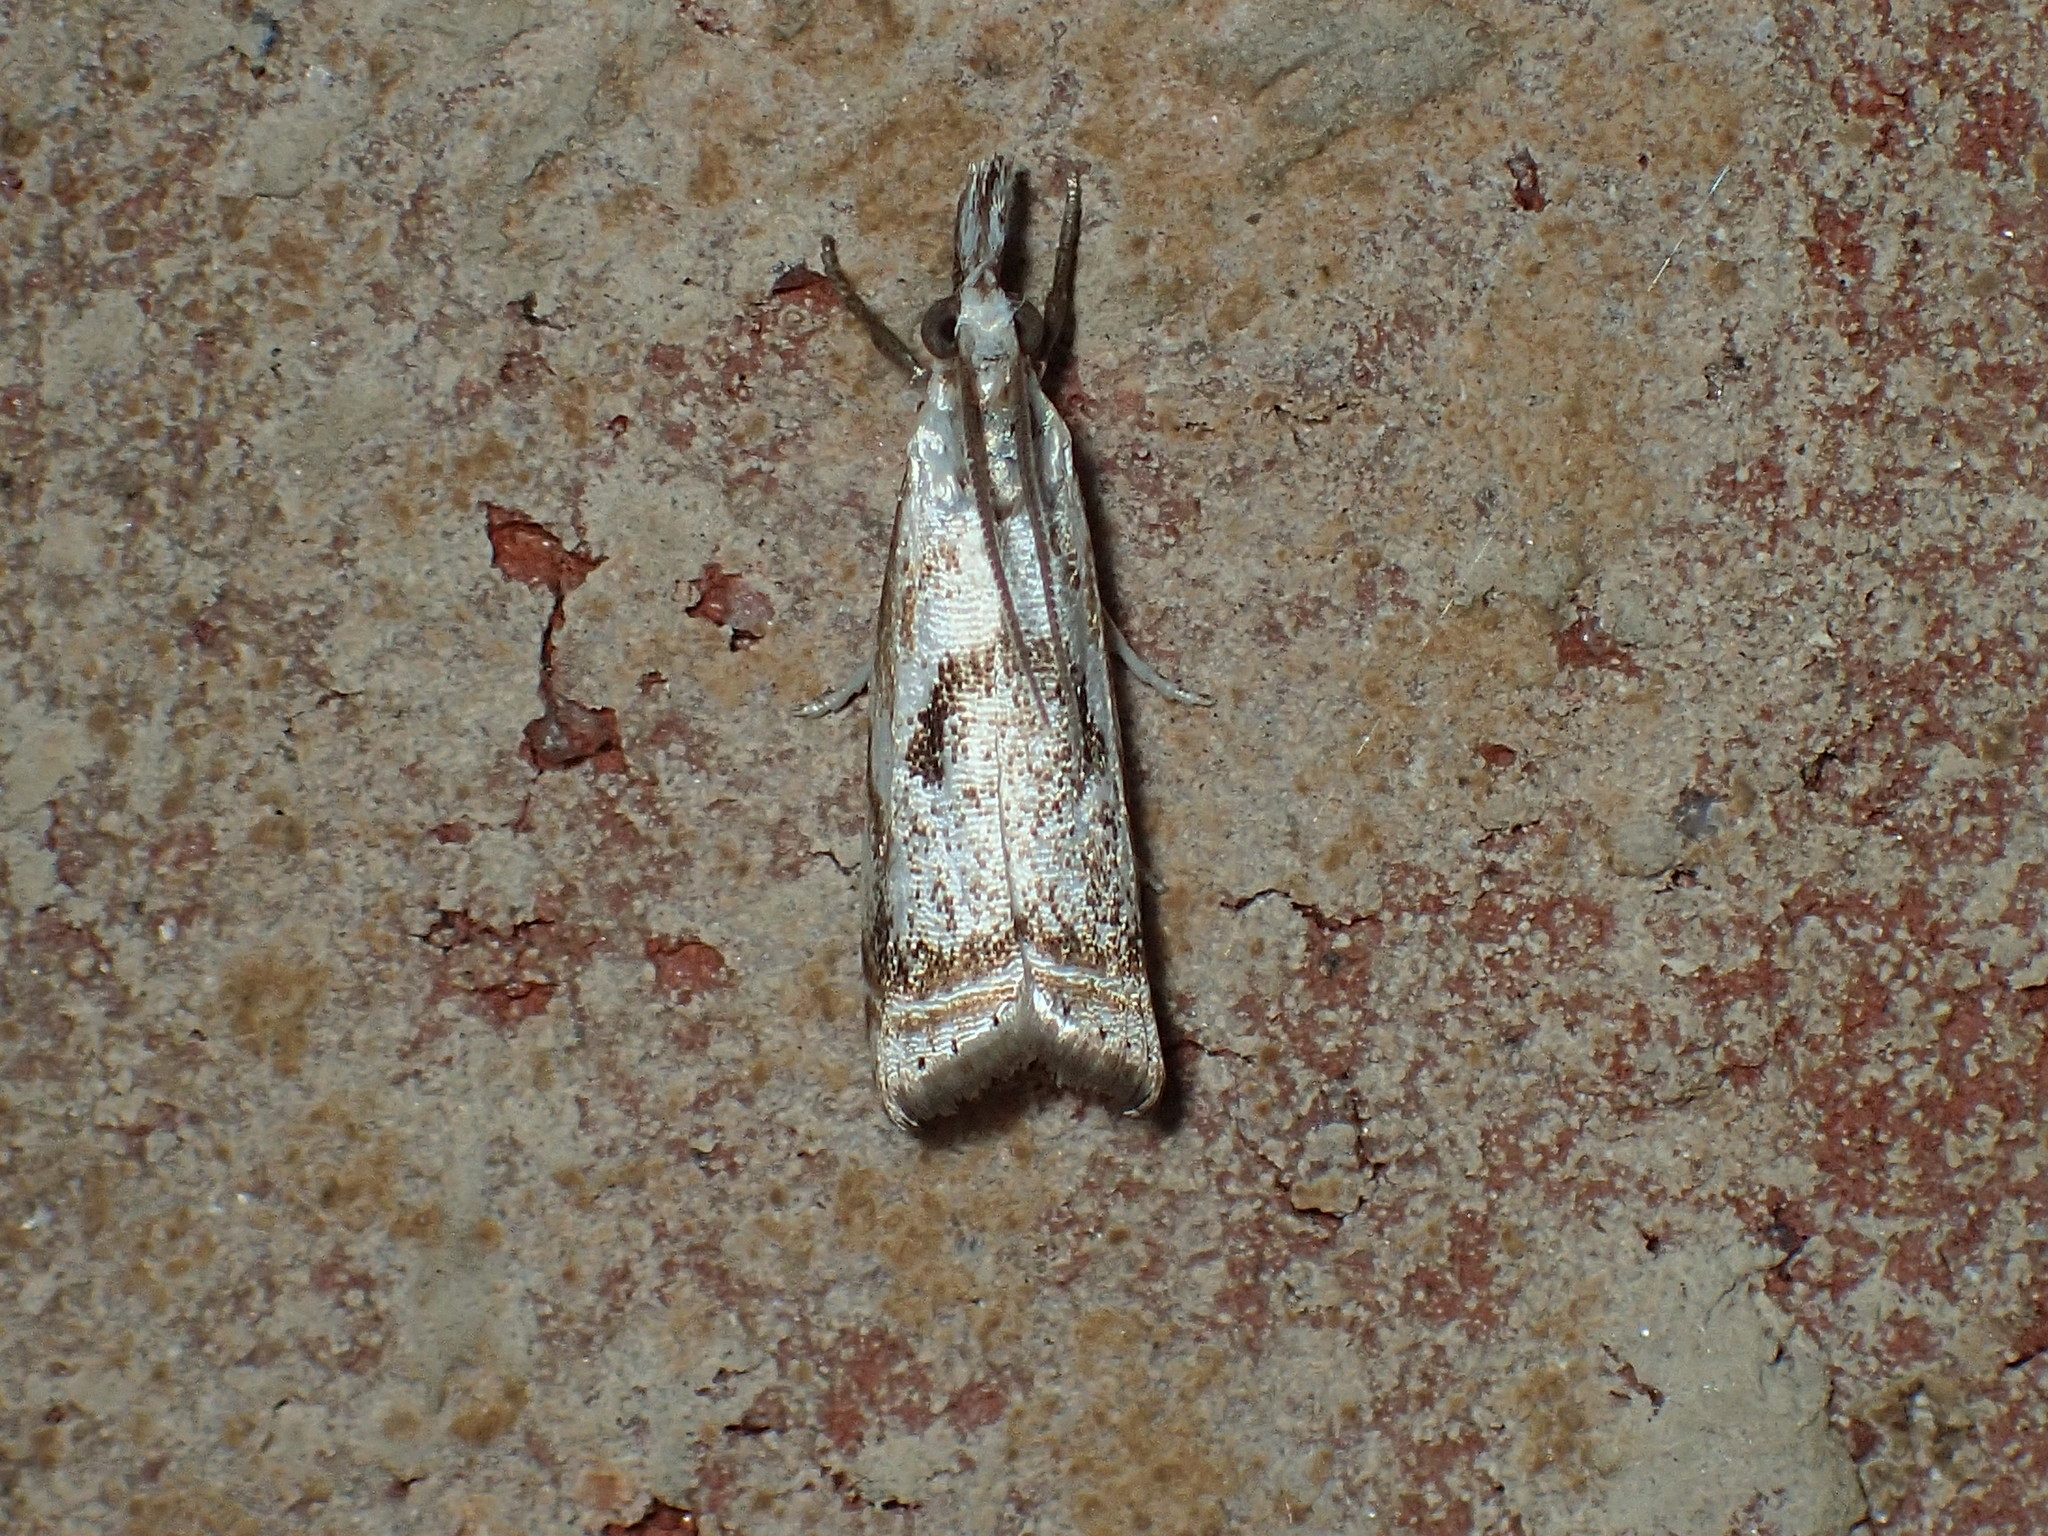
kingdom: Animalia
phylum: Arthropoda
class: Insecta
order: Lepidoptera
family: Crambidae
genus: Microcrambus
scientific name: Microcrambus elegans
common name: Elegant grass-veneer
